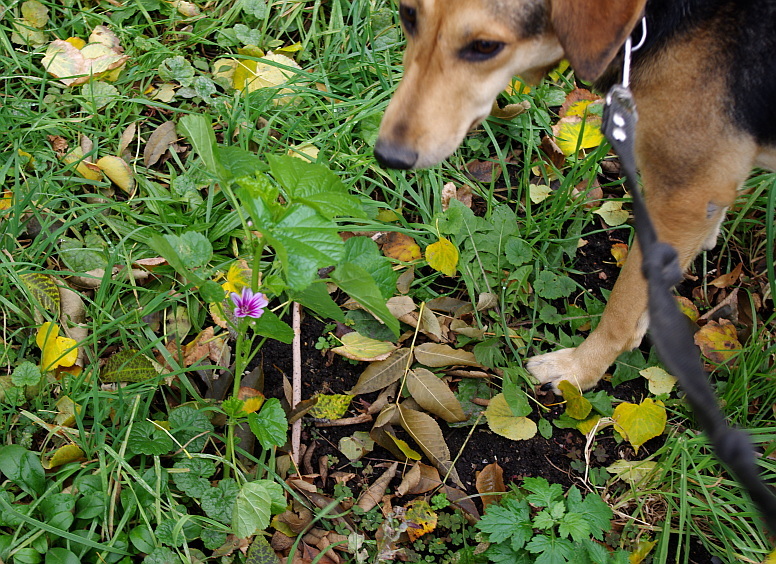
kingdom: Plantae
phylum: Tracheophyta
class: Magnoliopsida
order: Malvales
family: Malvaceae
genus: Malva
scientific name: Malva sylvestris
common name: Common mallow
